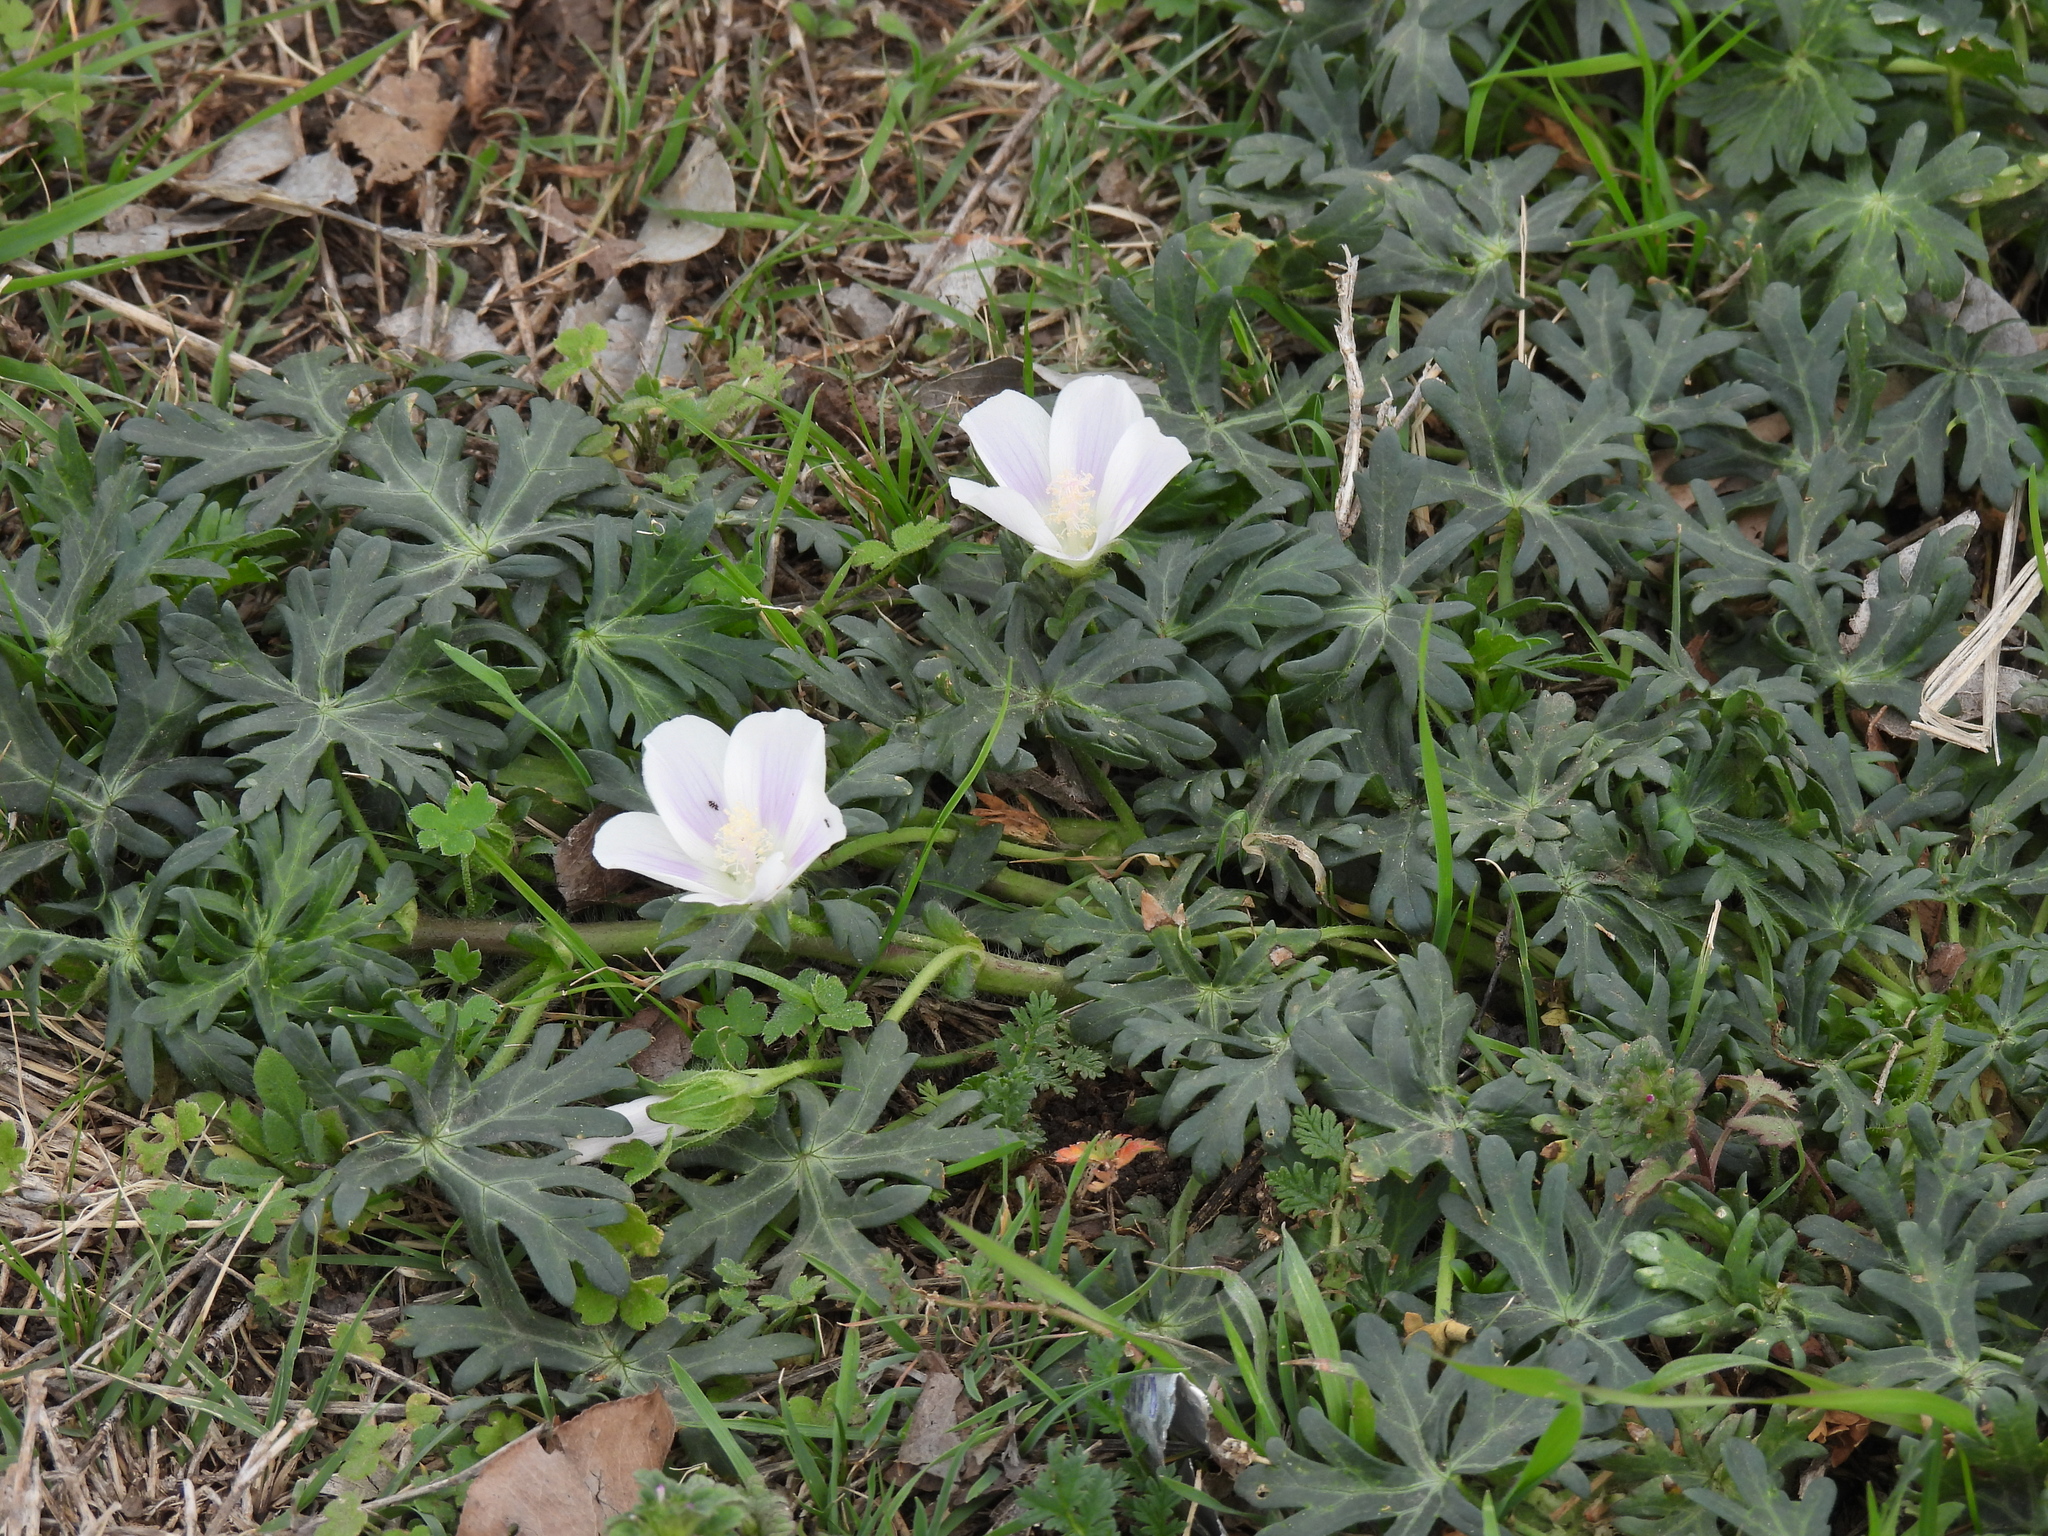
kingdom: Plantae
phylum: Tracheophyta
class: Magnoliopsida
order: Malvales
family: Malvaceae
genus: Callirhoe
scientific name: Callirhoe involucrata
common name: Purple poppy-mallow
